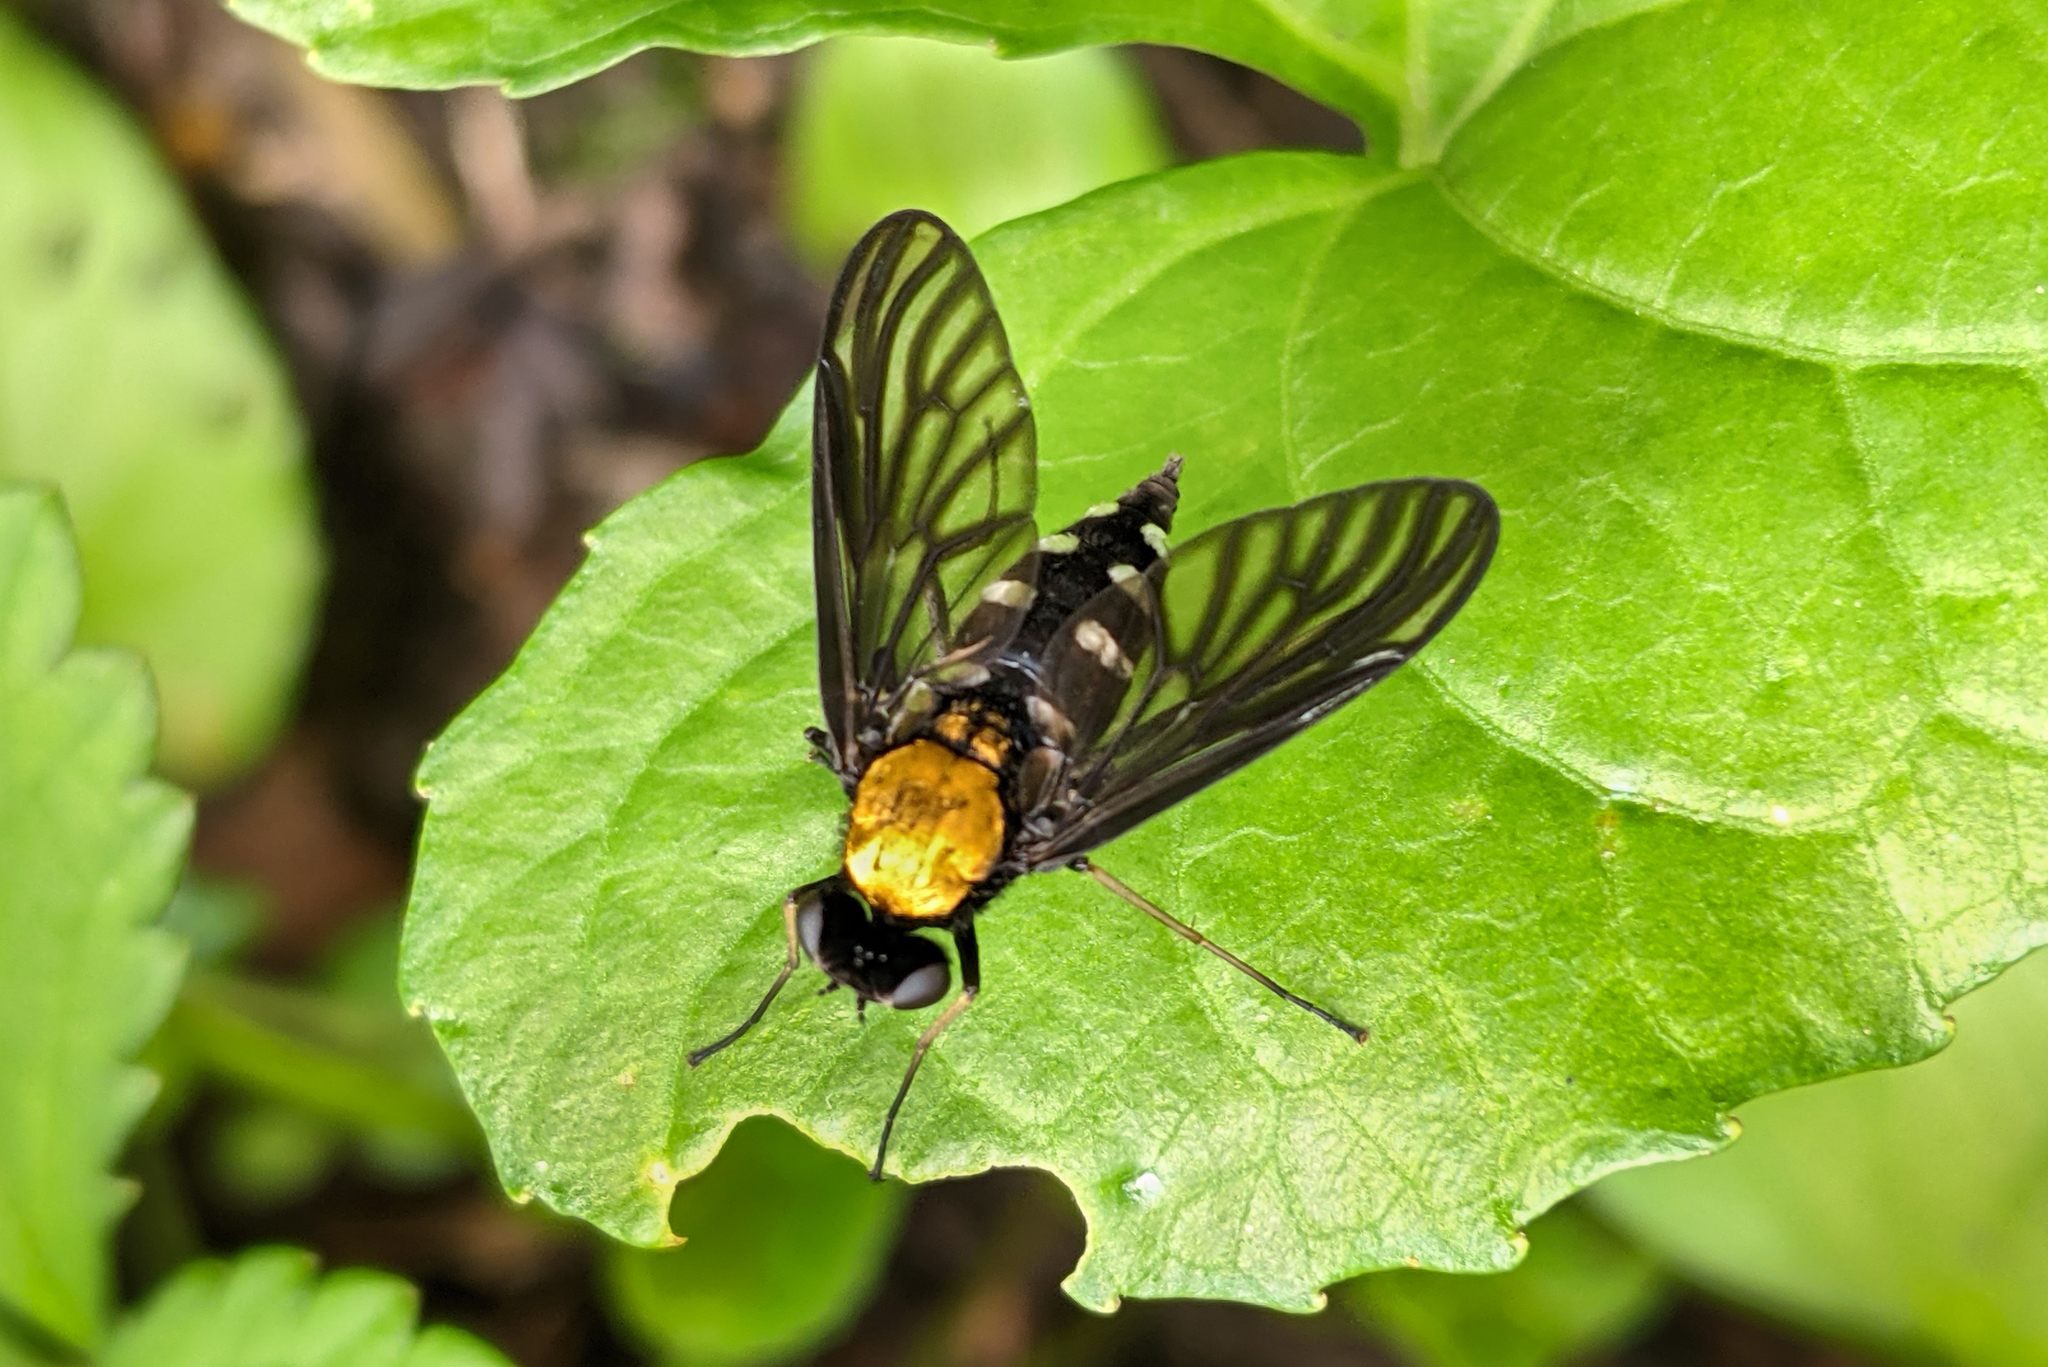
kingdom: Animalia
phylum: Arthropoda
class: Insecta
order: Diptera
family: Rhagionidae
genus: Chrysopilus
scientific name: Chrysopilus thoracicus
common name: Golden-backed snipe fly
